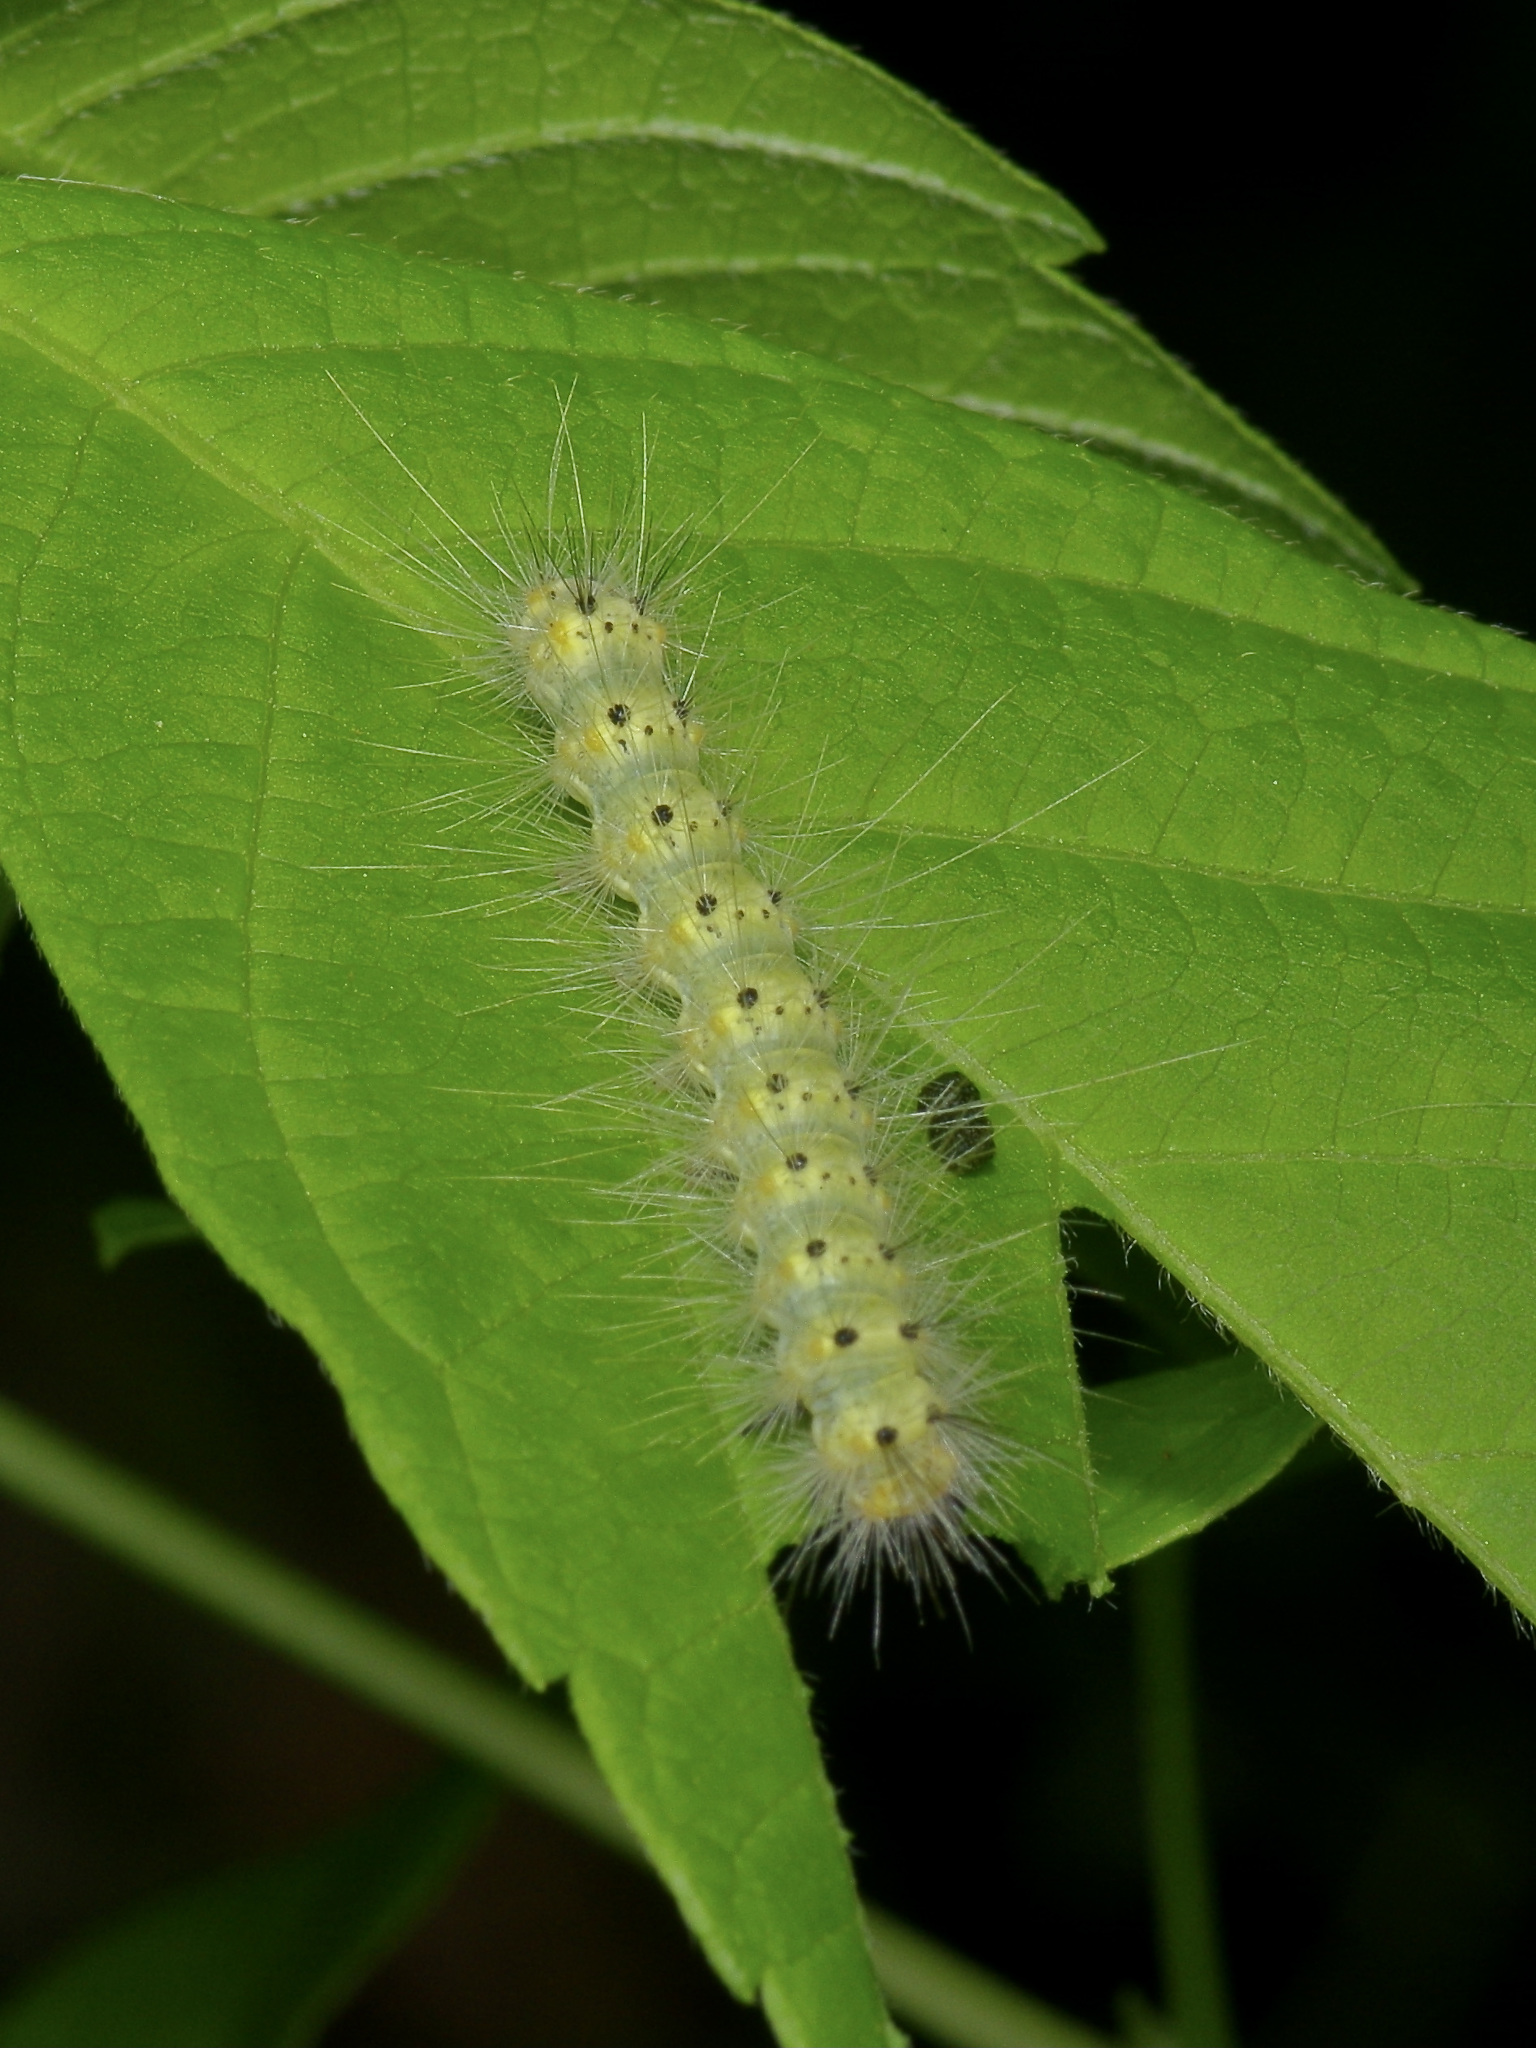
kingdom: Animalia
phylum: Arthropoda
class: Insecta
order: Lepidoptera
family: Erebidae
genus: Hyphantria
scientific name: Hyphantria cunea
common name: American white moth
